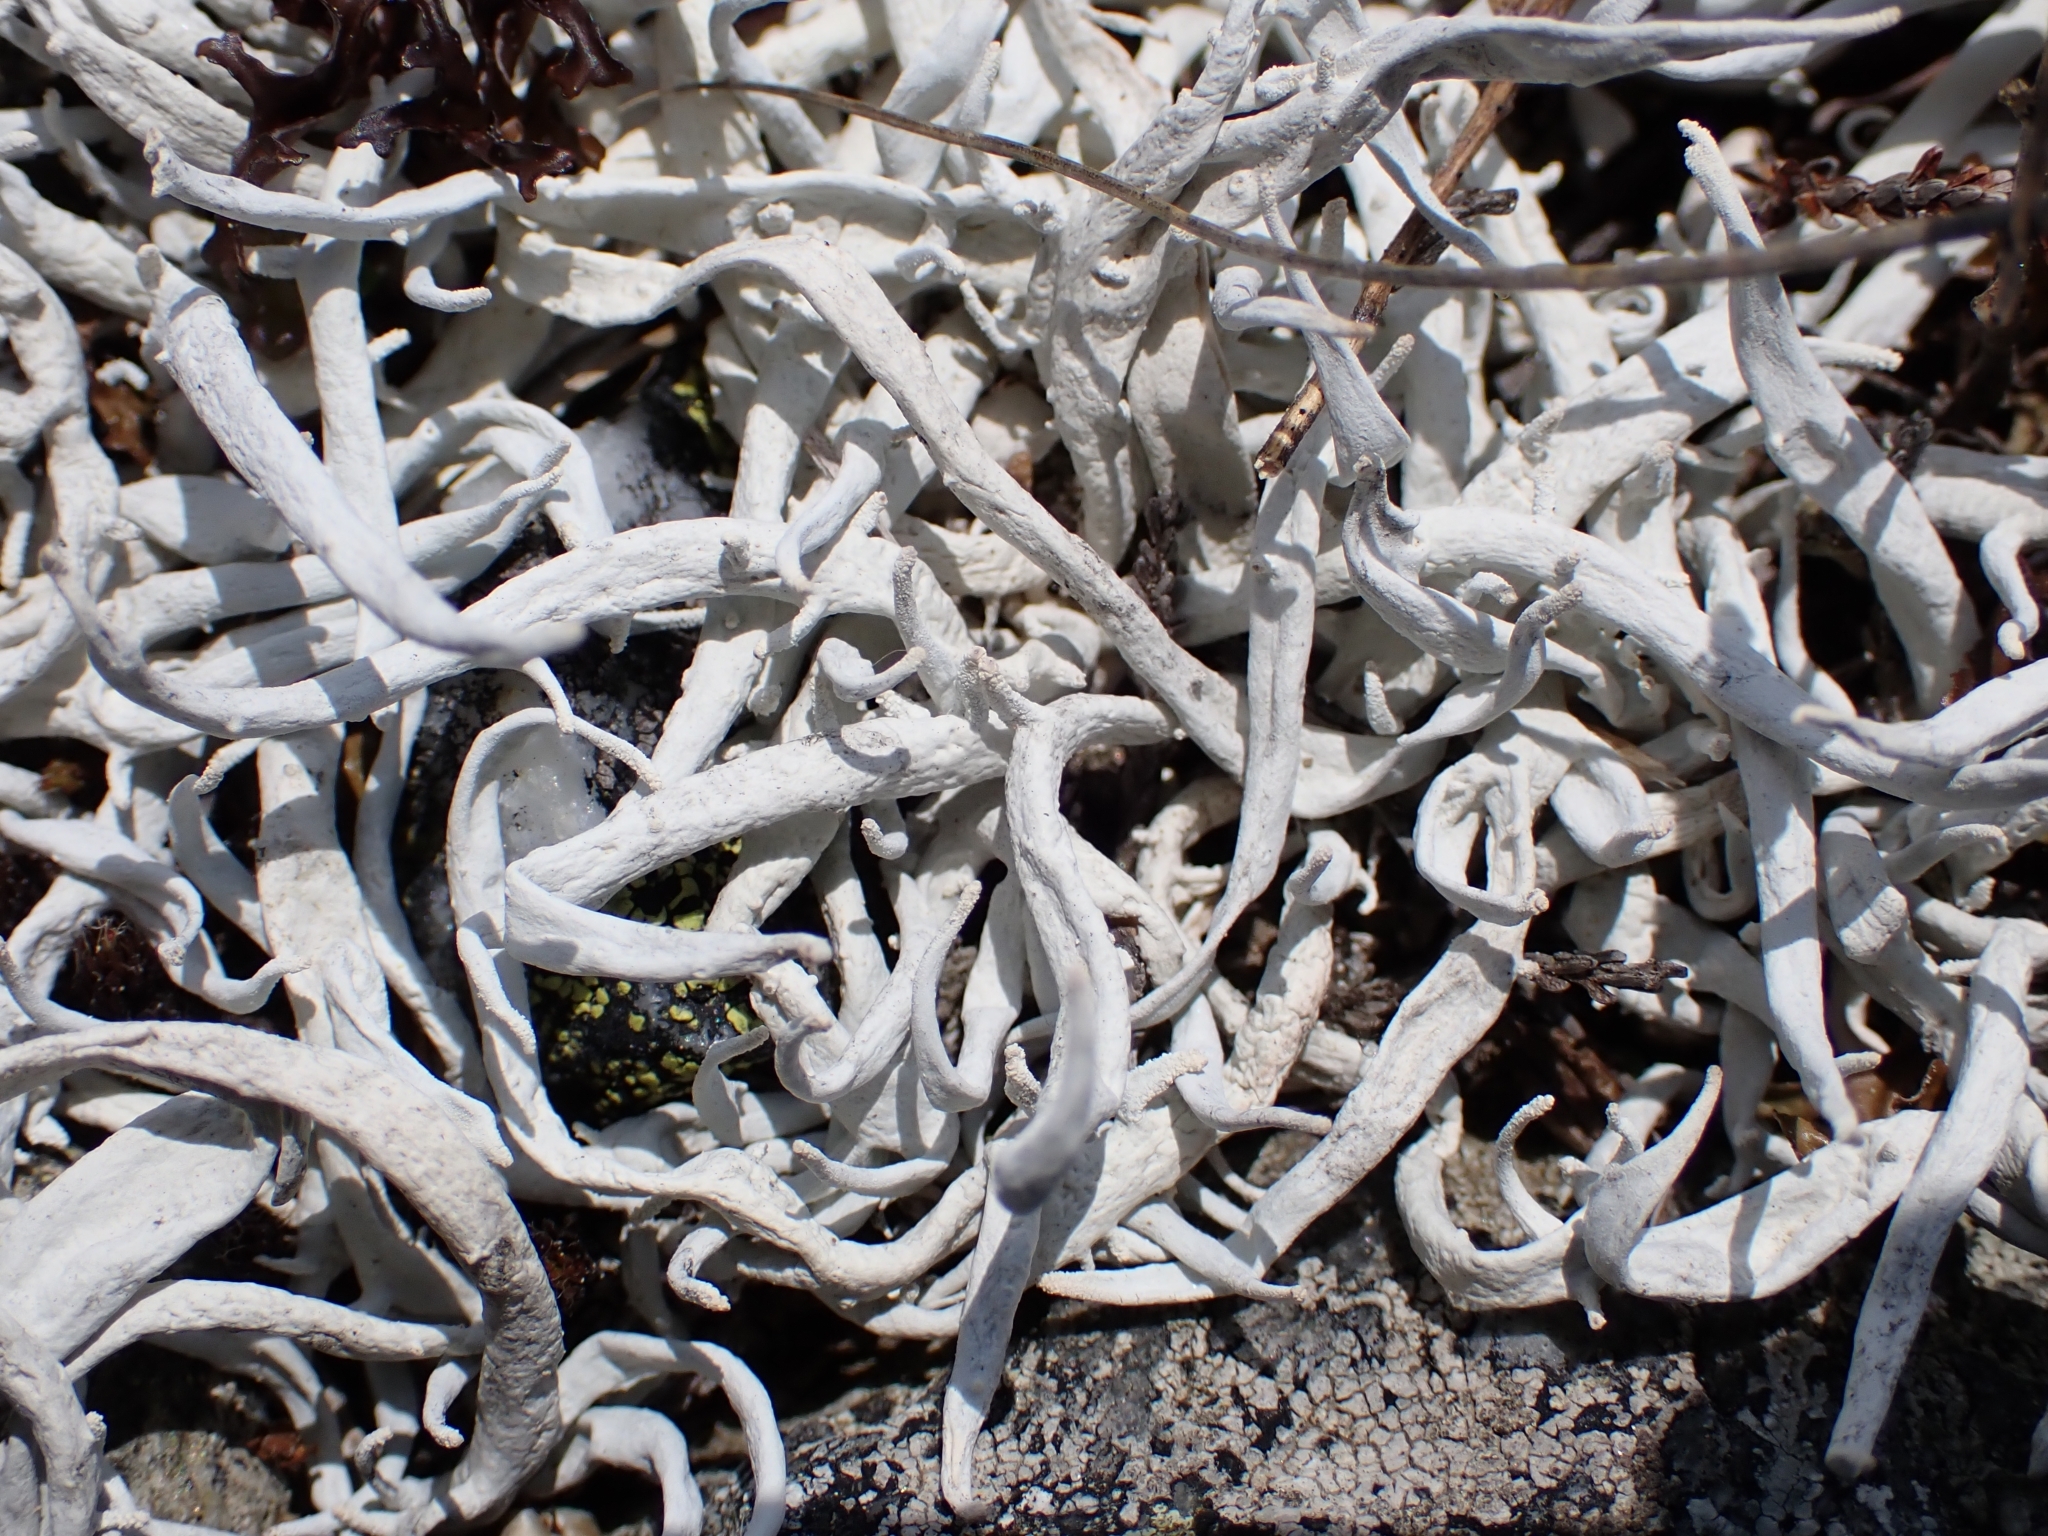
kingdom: Fungi
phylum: Ascomycota
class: Lecanoromycetes
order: Pertusariales
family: Icmadophilaceae
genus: Thamnolia
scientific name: Thamnolia vermicularis
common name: Whiteworm lichen
